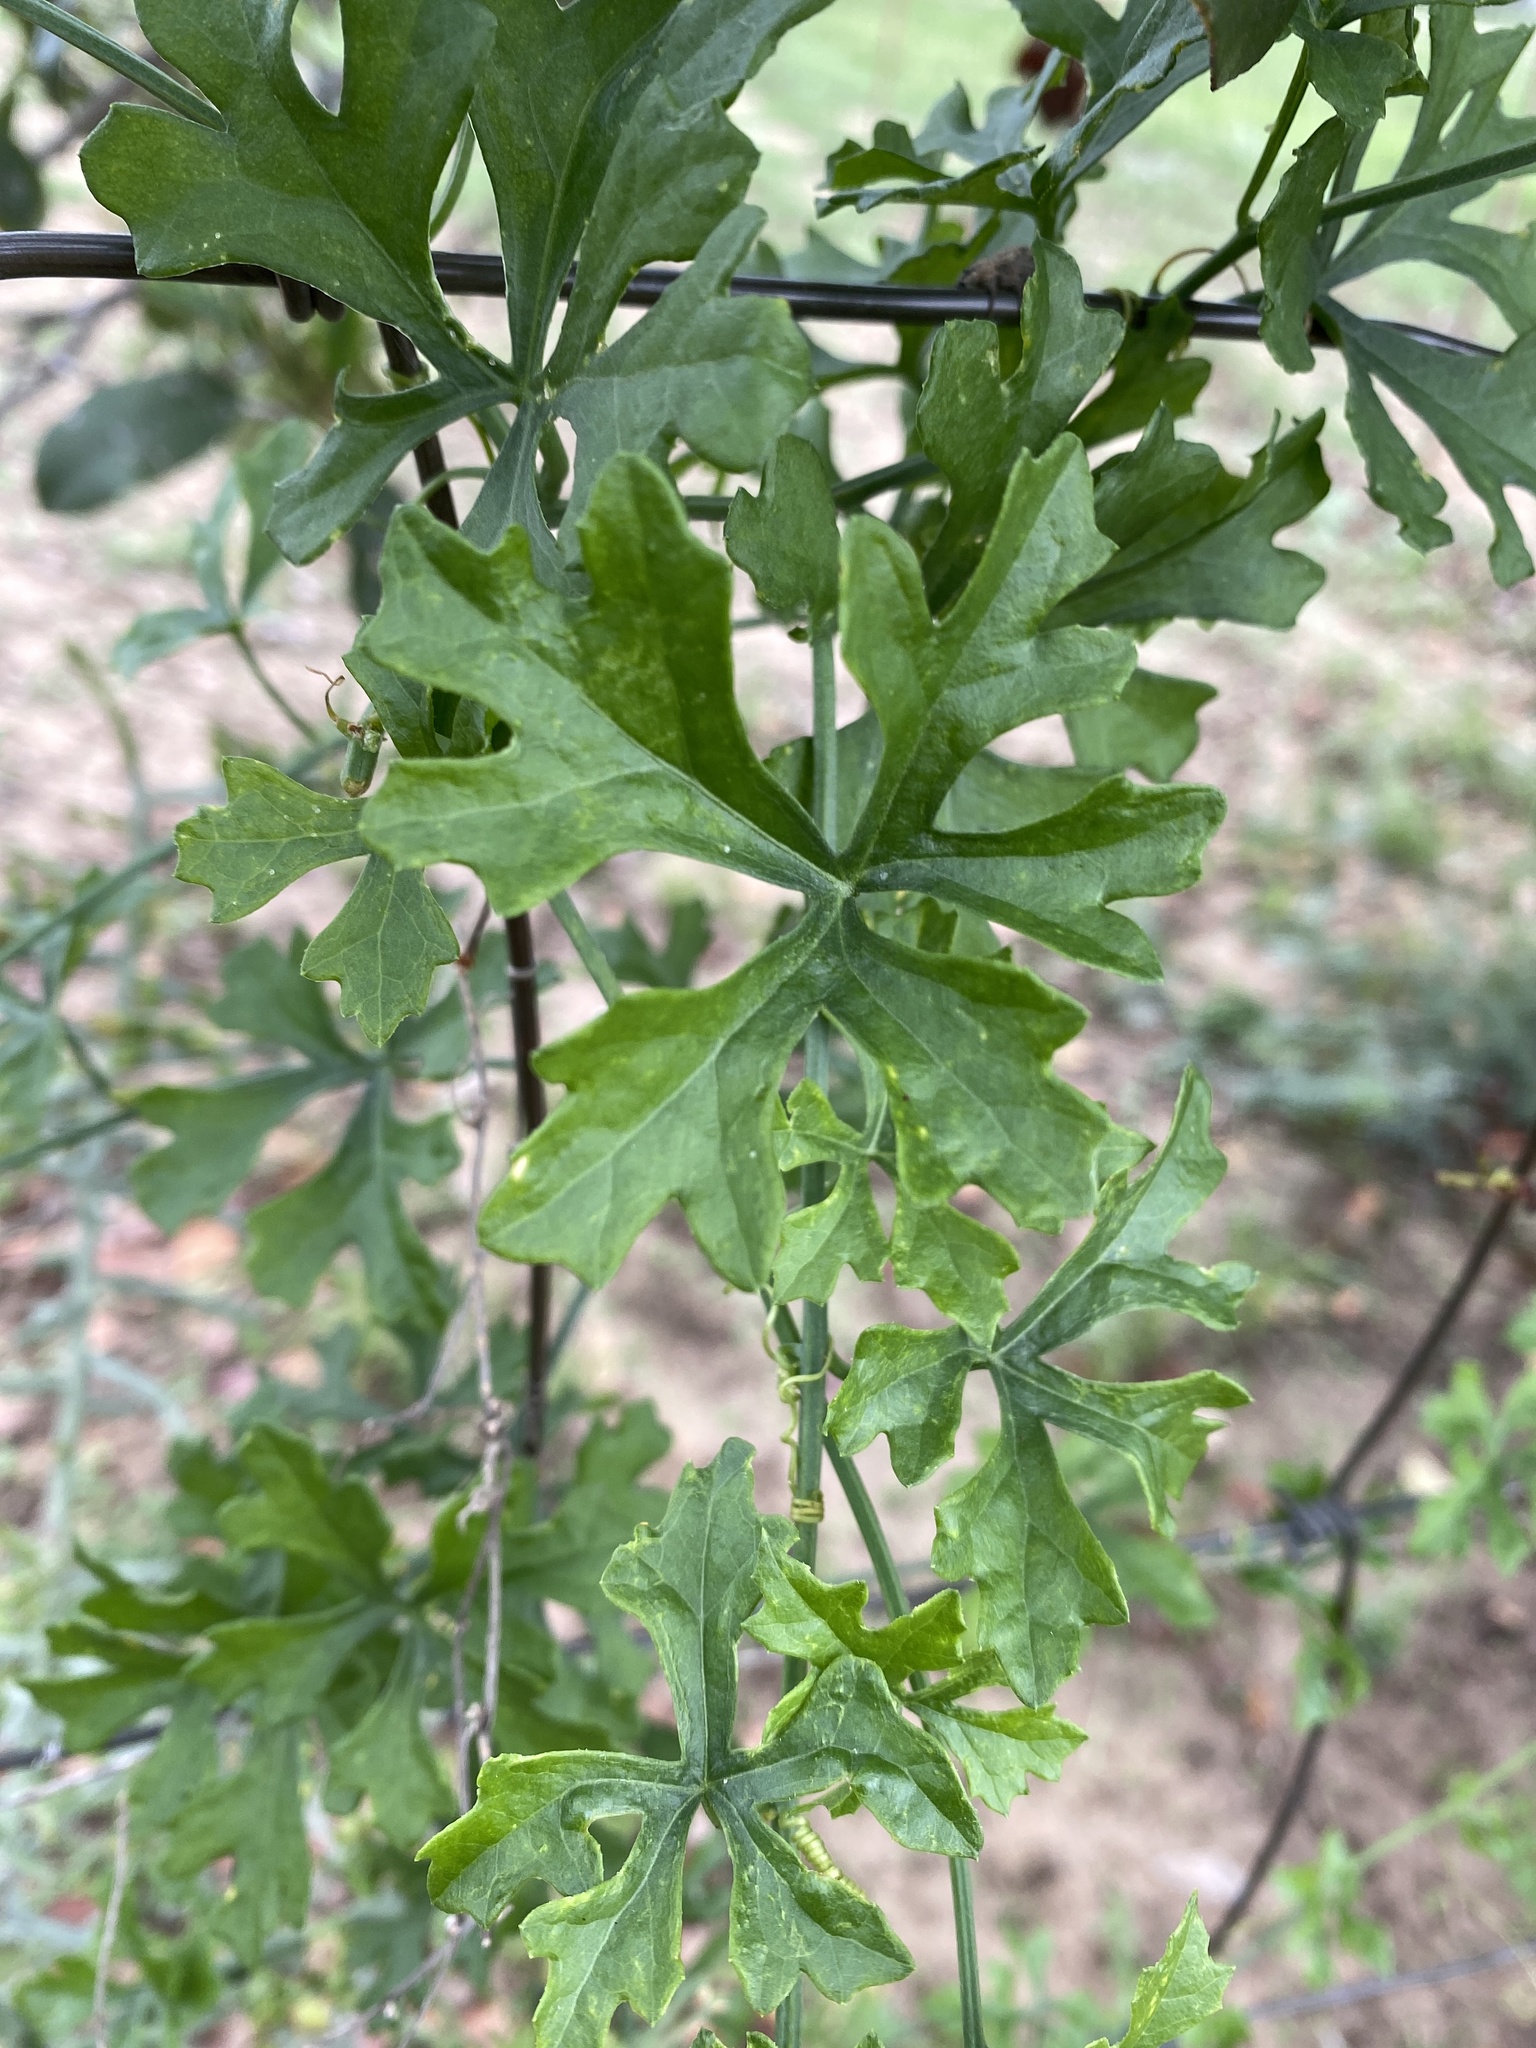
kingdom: Plantae
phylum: Tracheophyta
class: Magnoliopsida
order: Cucurbitales
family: Cucurbitaceae
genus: Ibervillea
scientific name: Ibervillea lindheimeri
